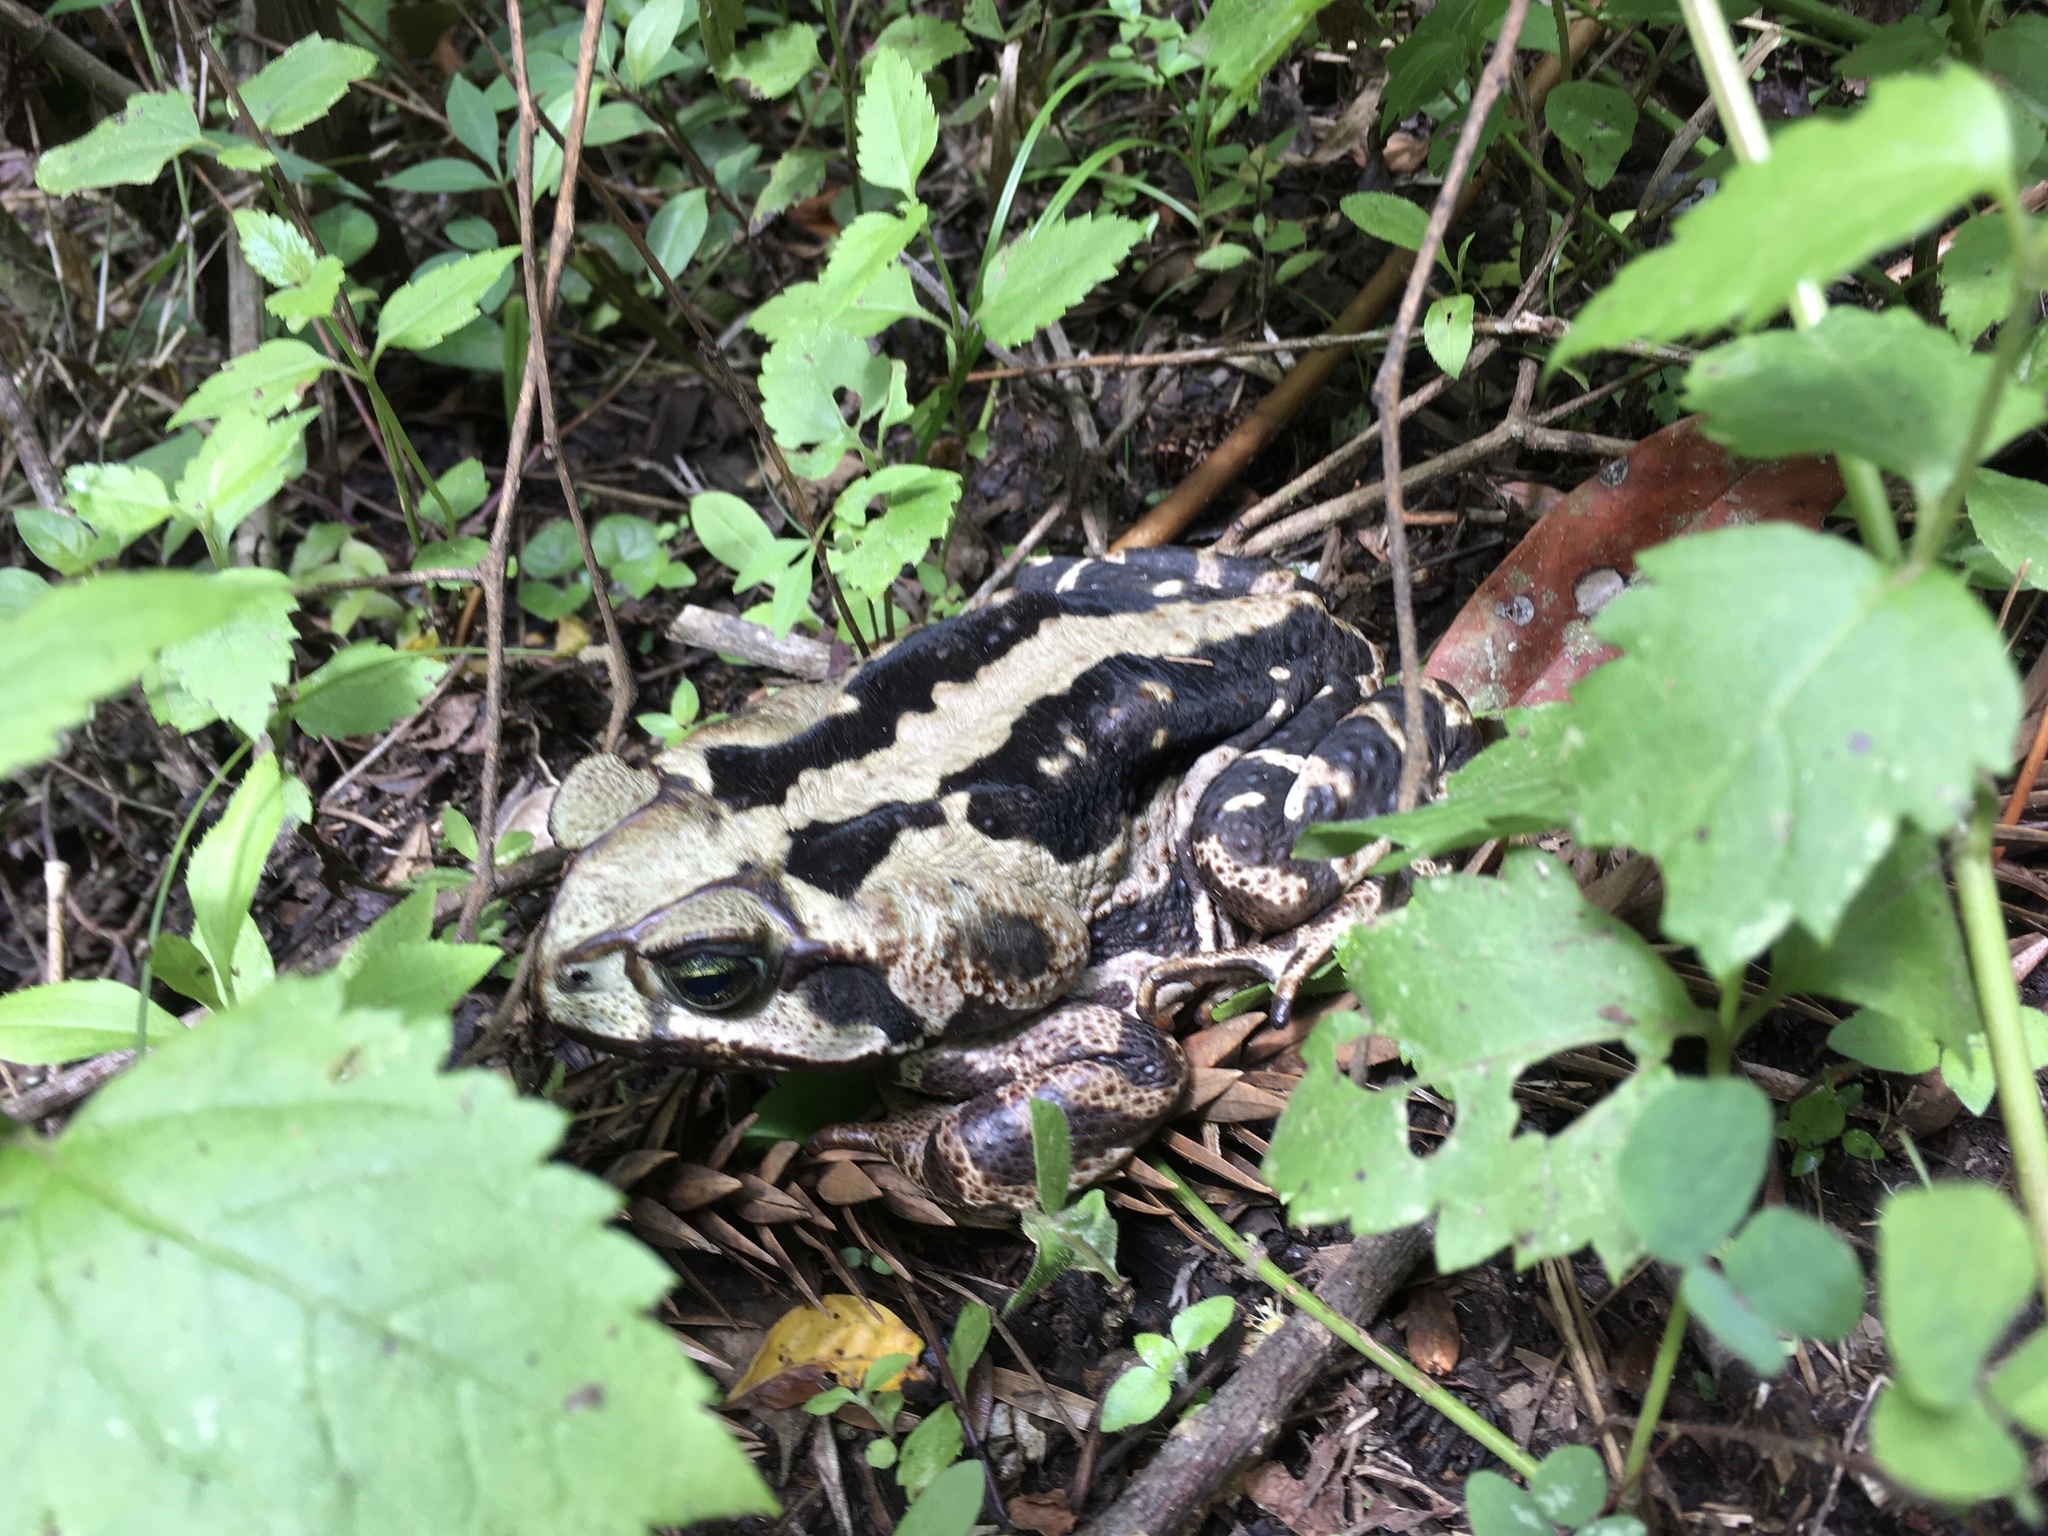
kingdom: Animalia
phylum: Chordata
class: Amphibia
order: Anura
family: Bufonidae
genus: Rhinella
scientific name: Rhinella icterica
